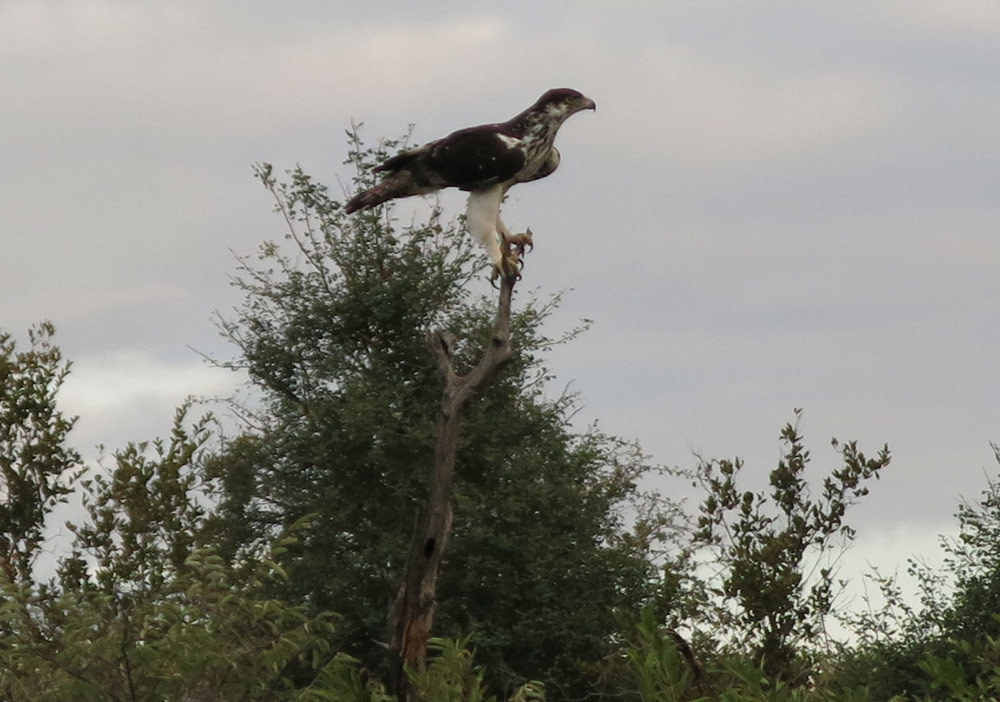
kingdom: Animalia
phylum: Chordata
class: Aves
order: Accipitriformes
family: Accipitridae
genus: Aquila
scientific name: Aquila spilogaster
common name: African hawk-eagle
